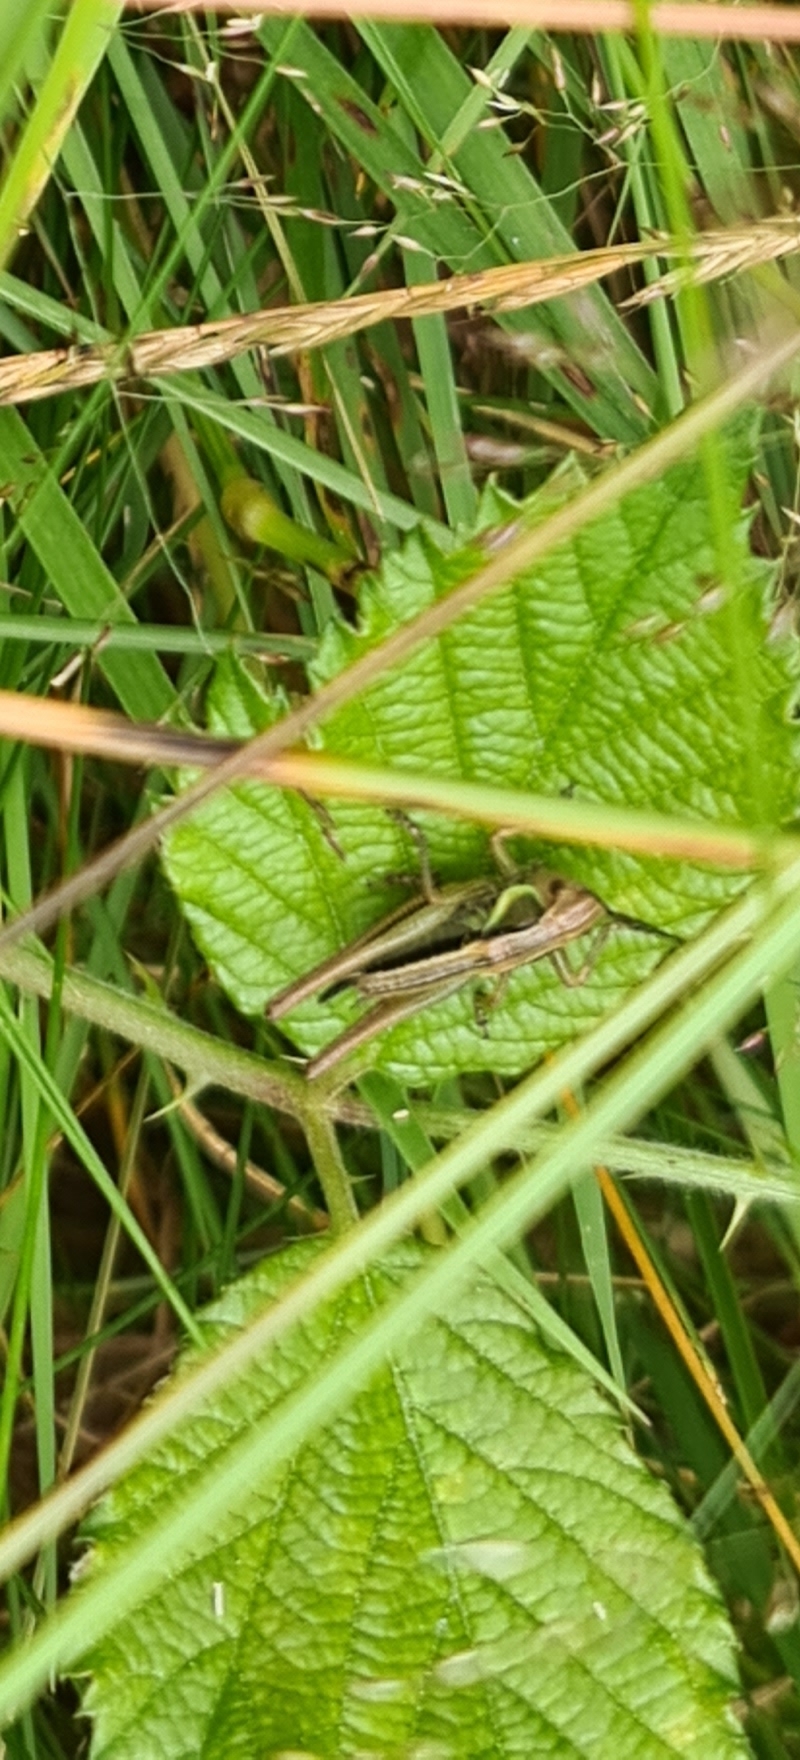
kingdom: Animalia
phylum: Arthropoda
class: Insecta
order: Orthoptera
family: Tettigoniidae
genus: Roeseliana
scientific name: Roeseliana roeselii
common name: Roesel's bush cricket
